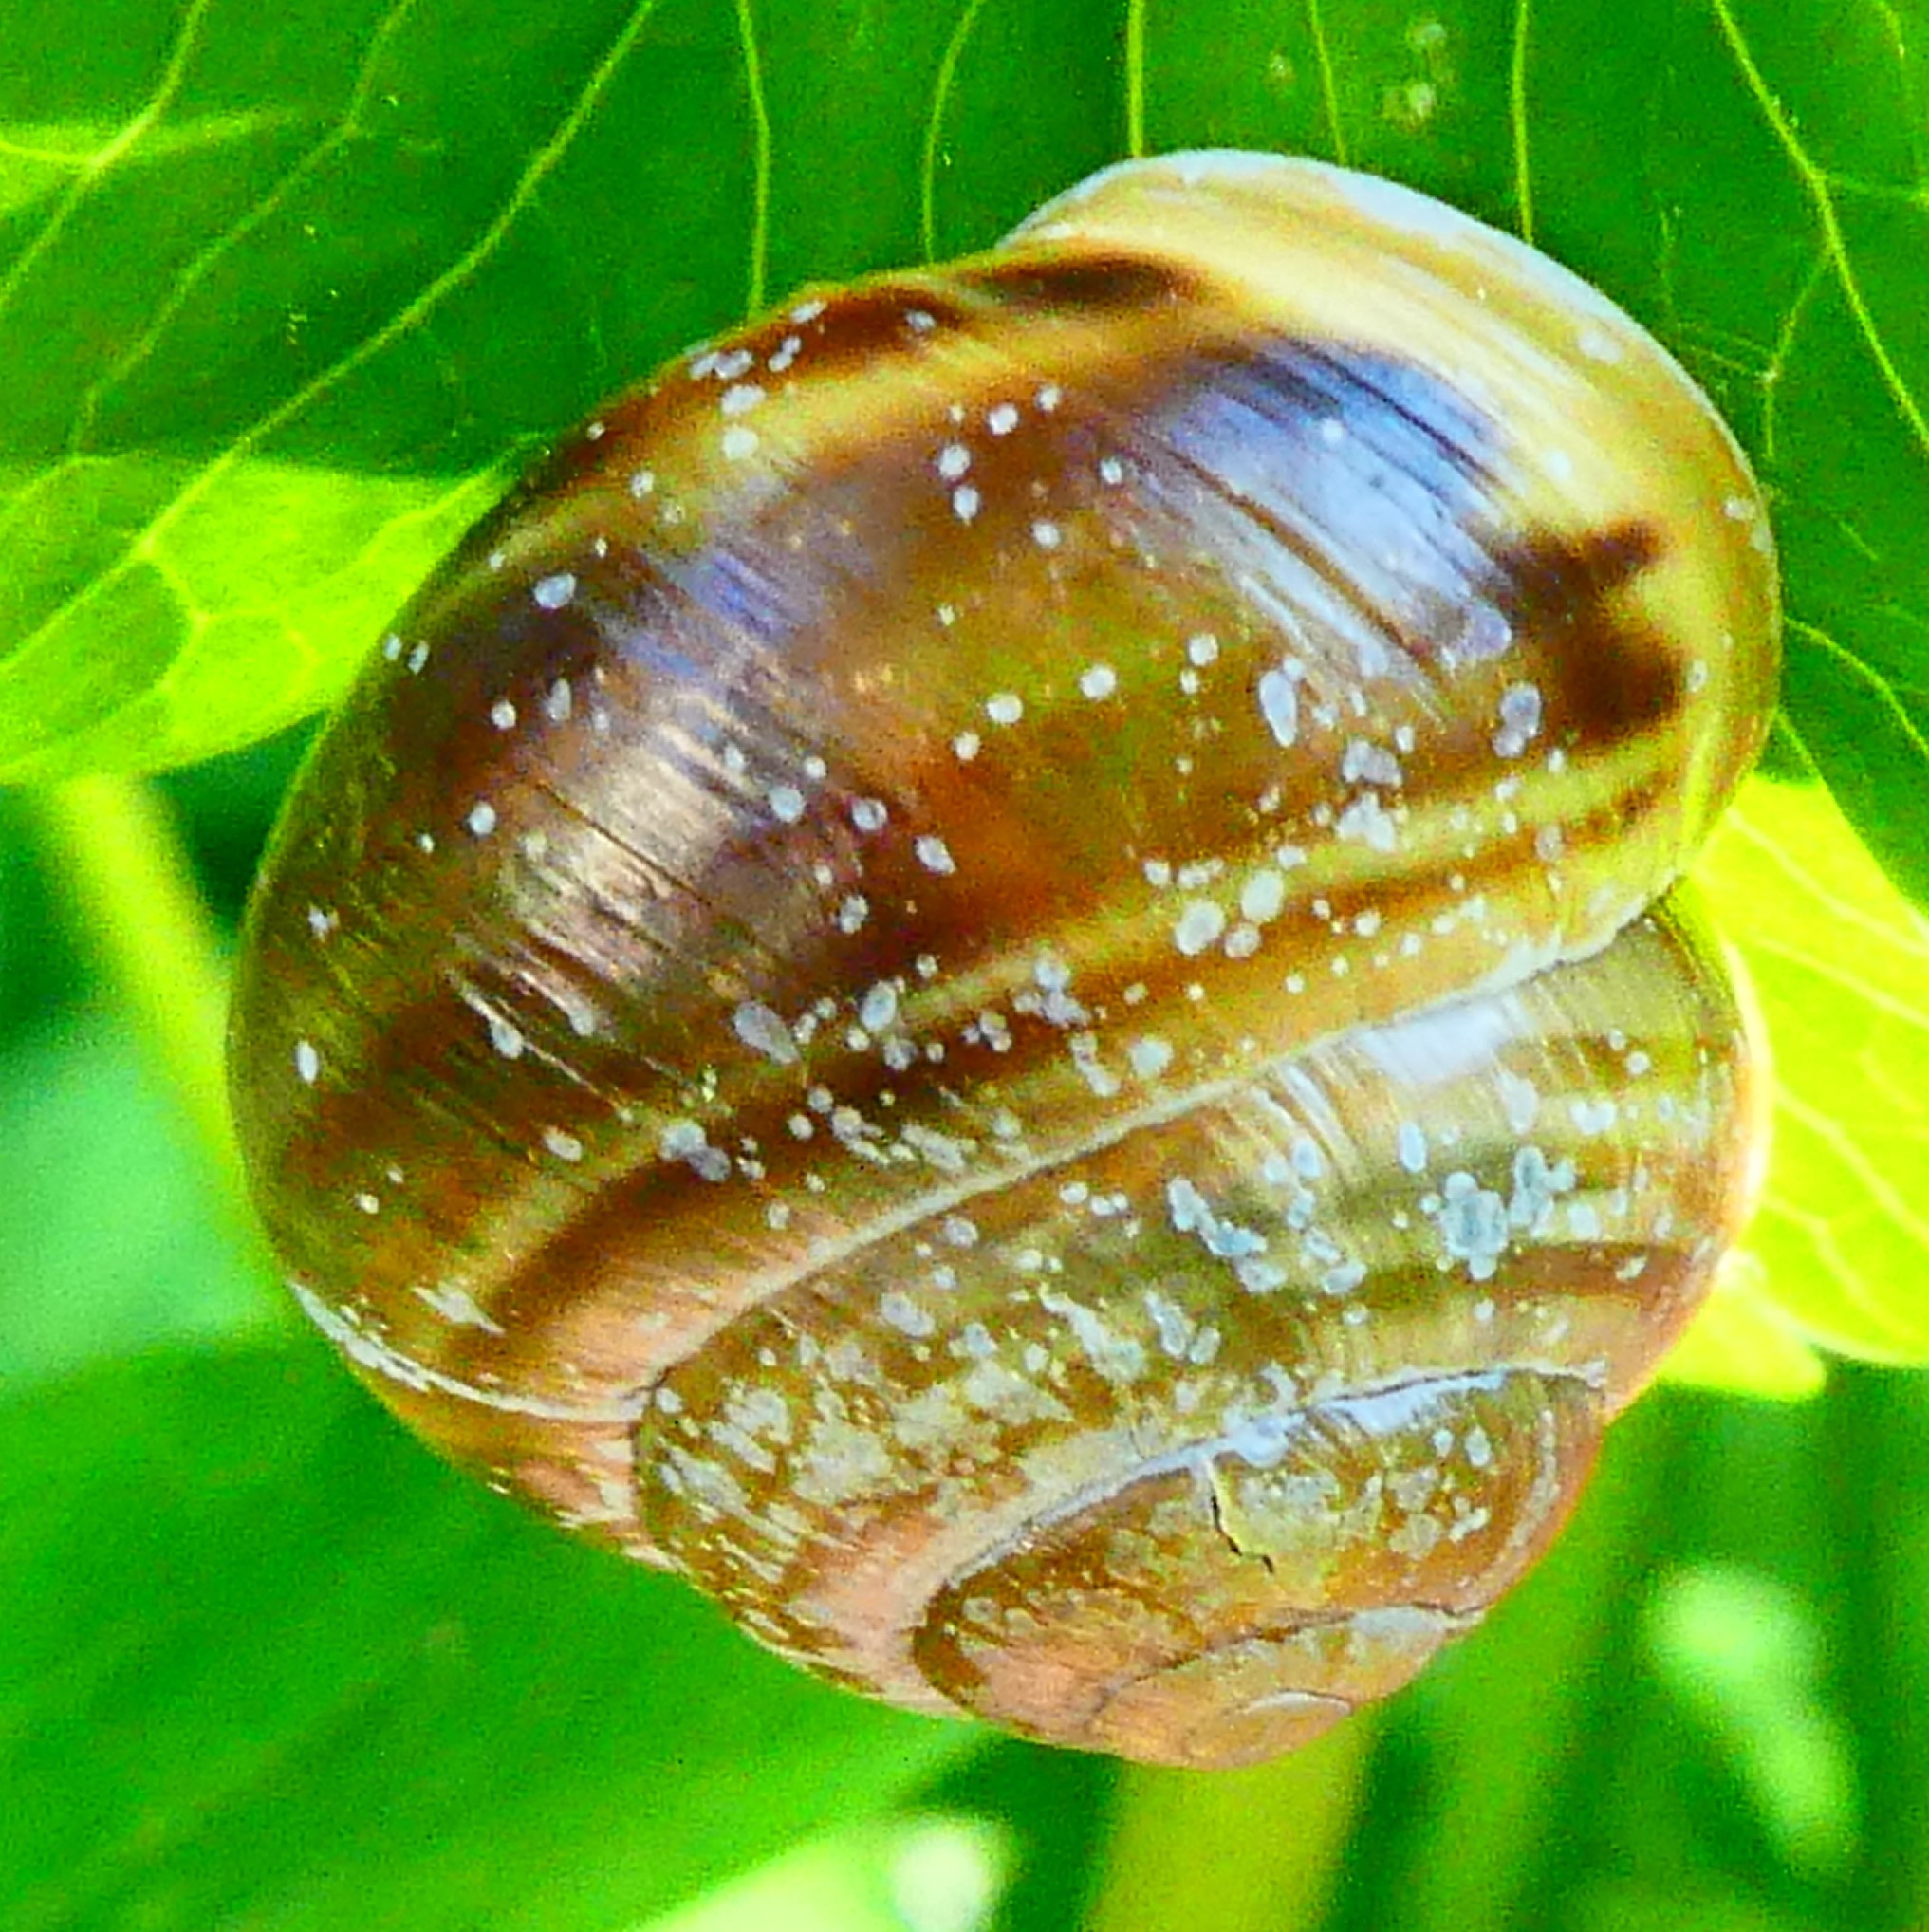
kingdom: Animalia
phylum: Mollusca
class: Gastropoda
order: Stylommatophora
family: Helicidae
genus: Cepaea
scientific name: Cepaea hortensis
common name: White-lip gardensnail
